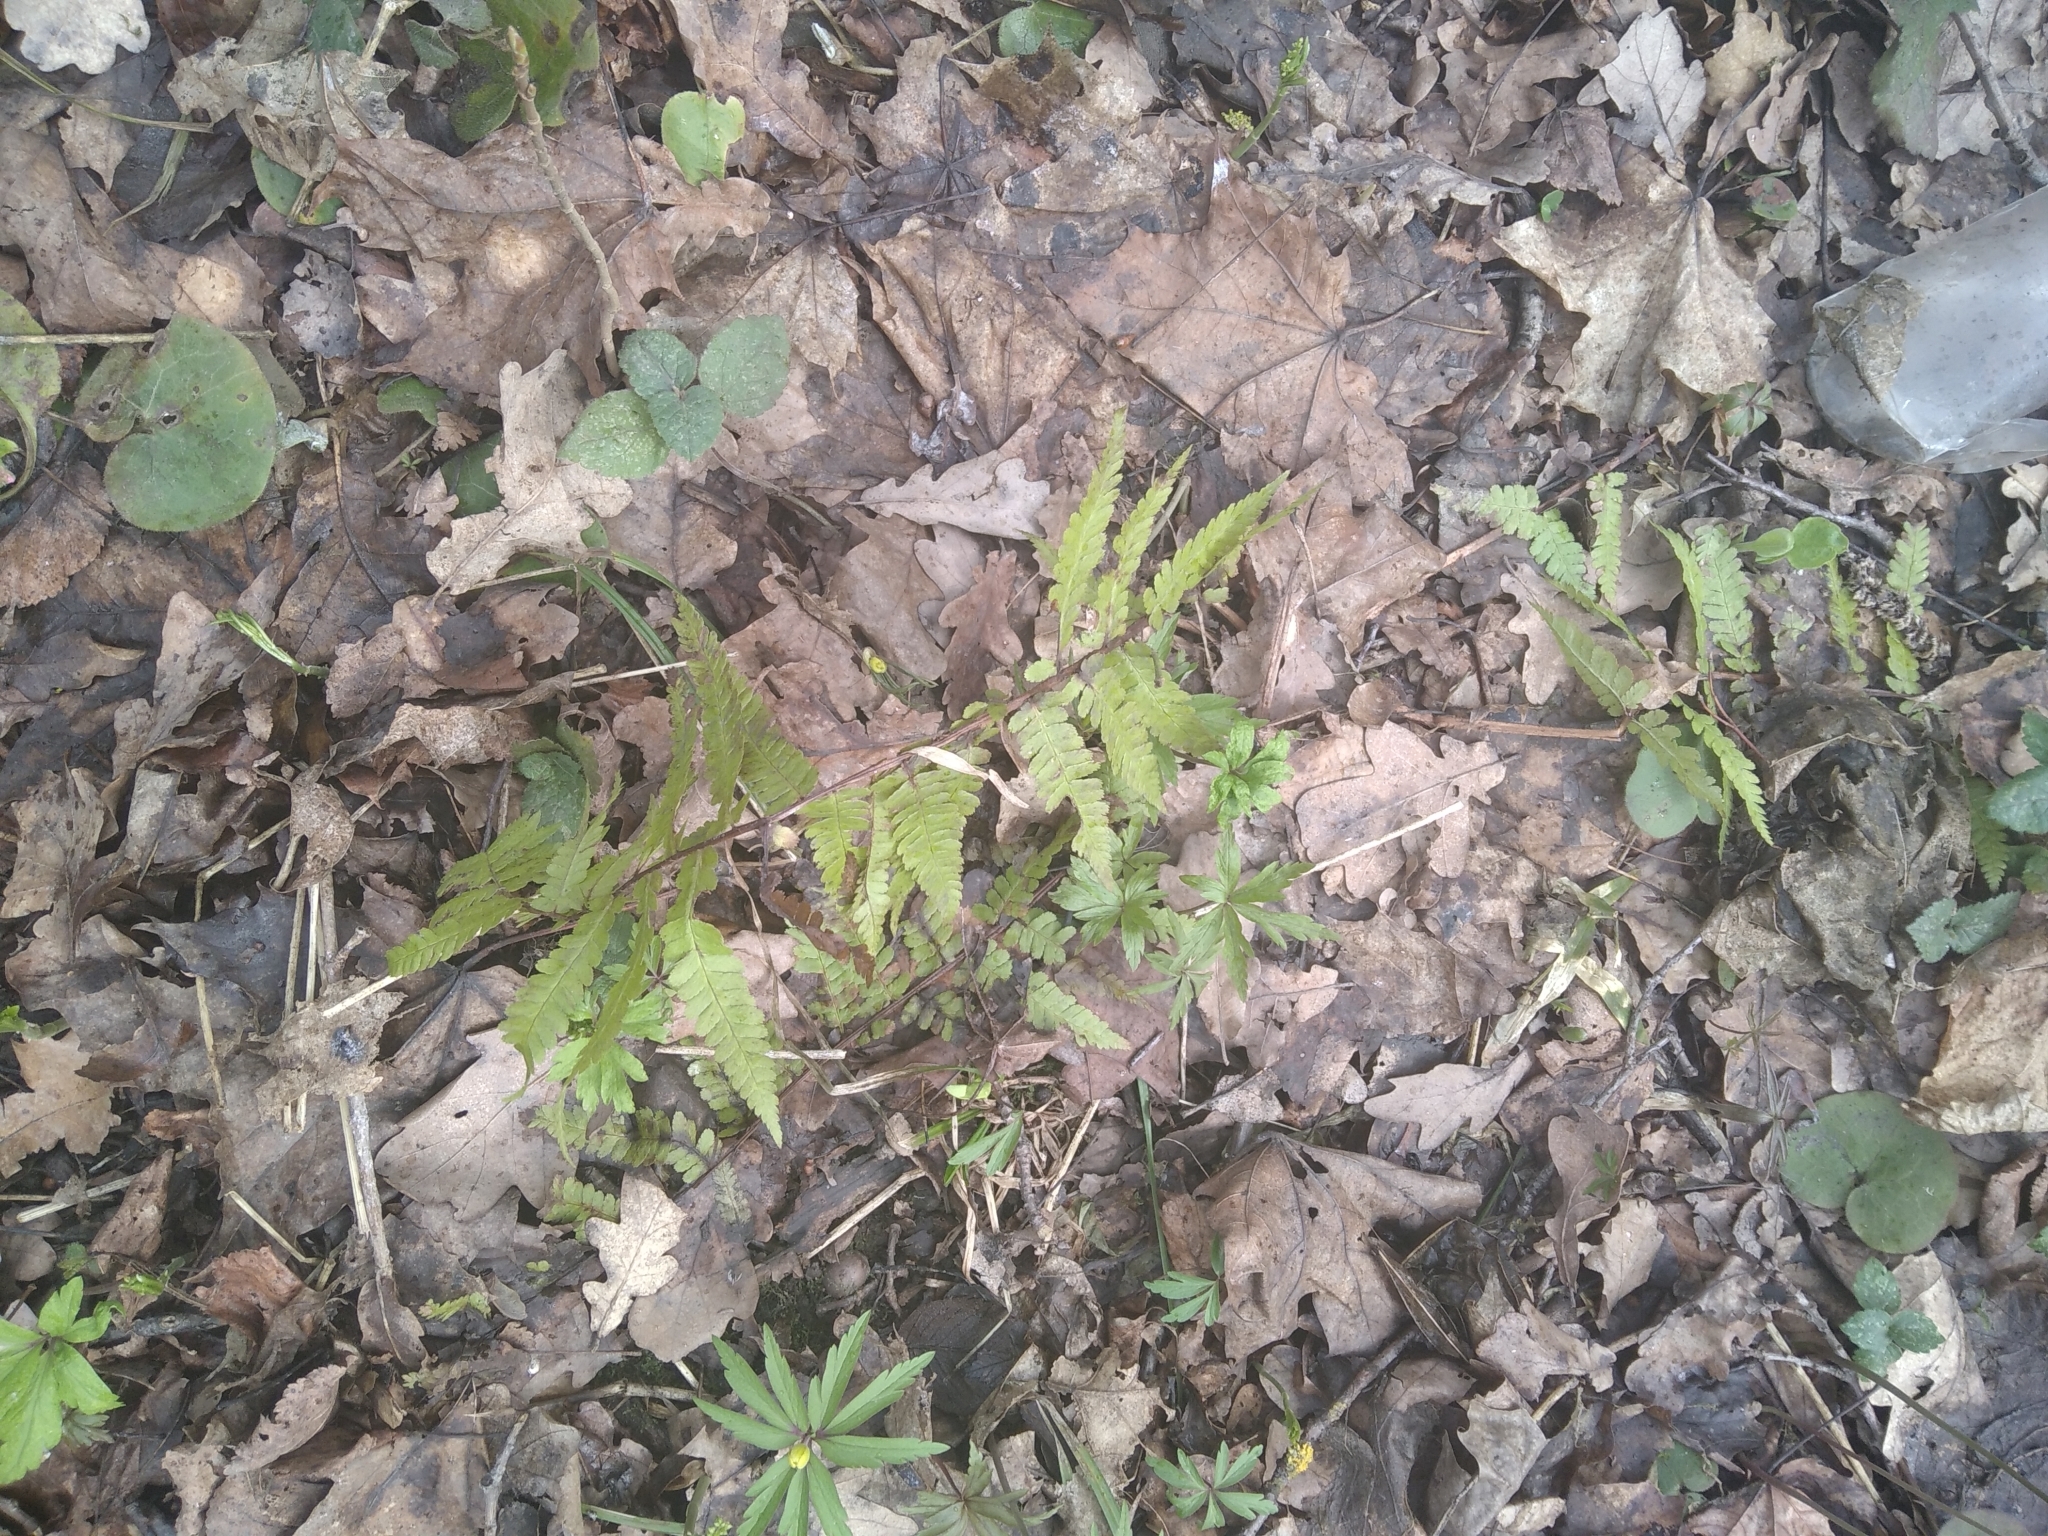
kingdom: Plantae
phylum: Tracheophyta
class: Polypodiopsida
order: Polypodiales
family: Dryopteridaceae
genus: Dryopteris
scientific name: Dryopteris filix-mas
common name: Male fern
